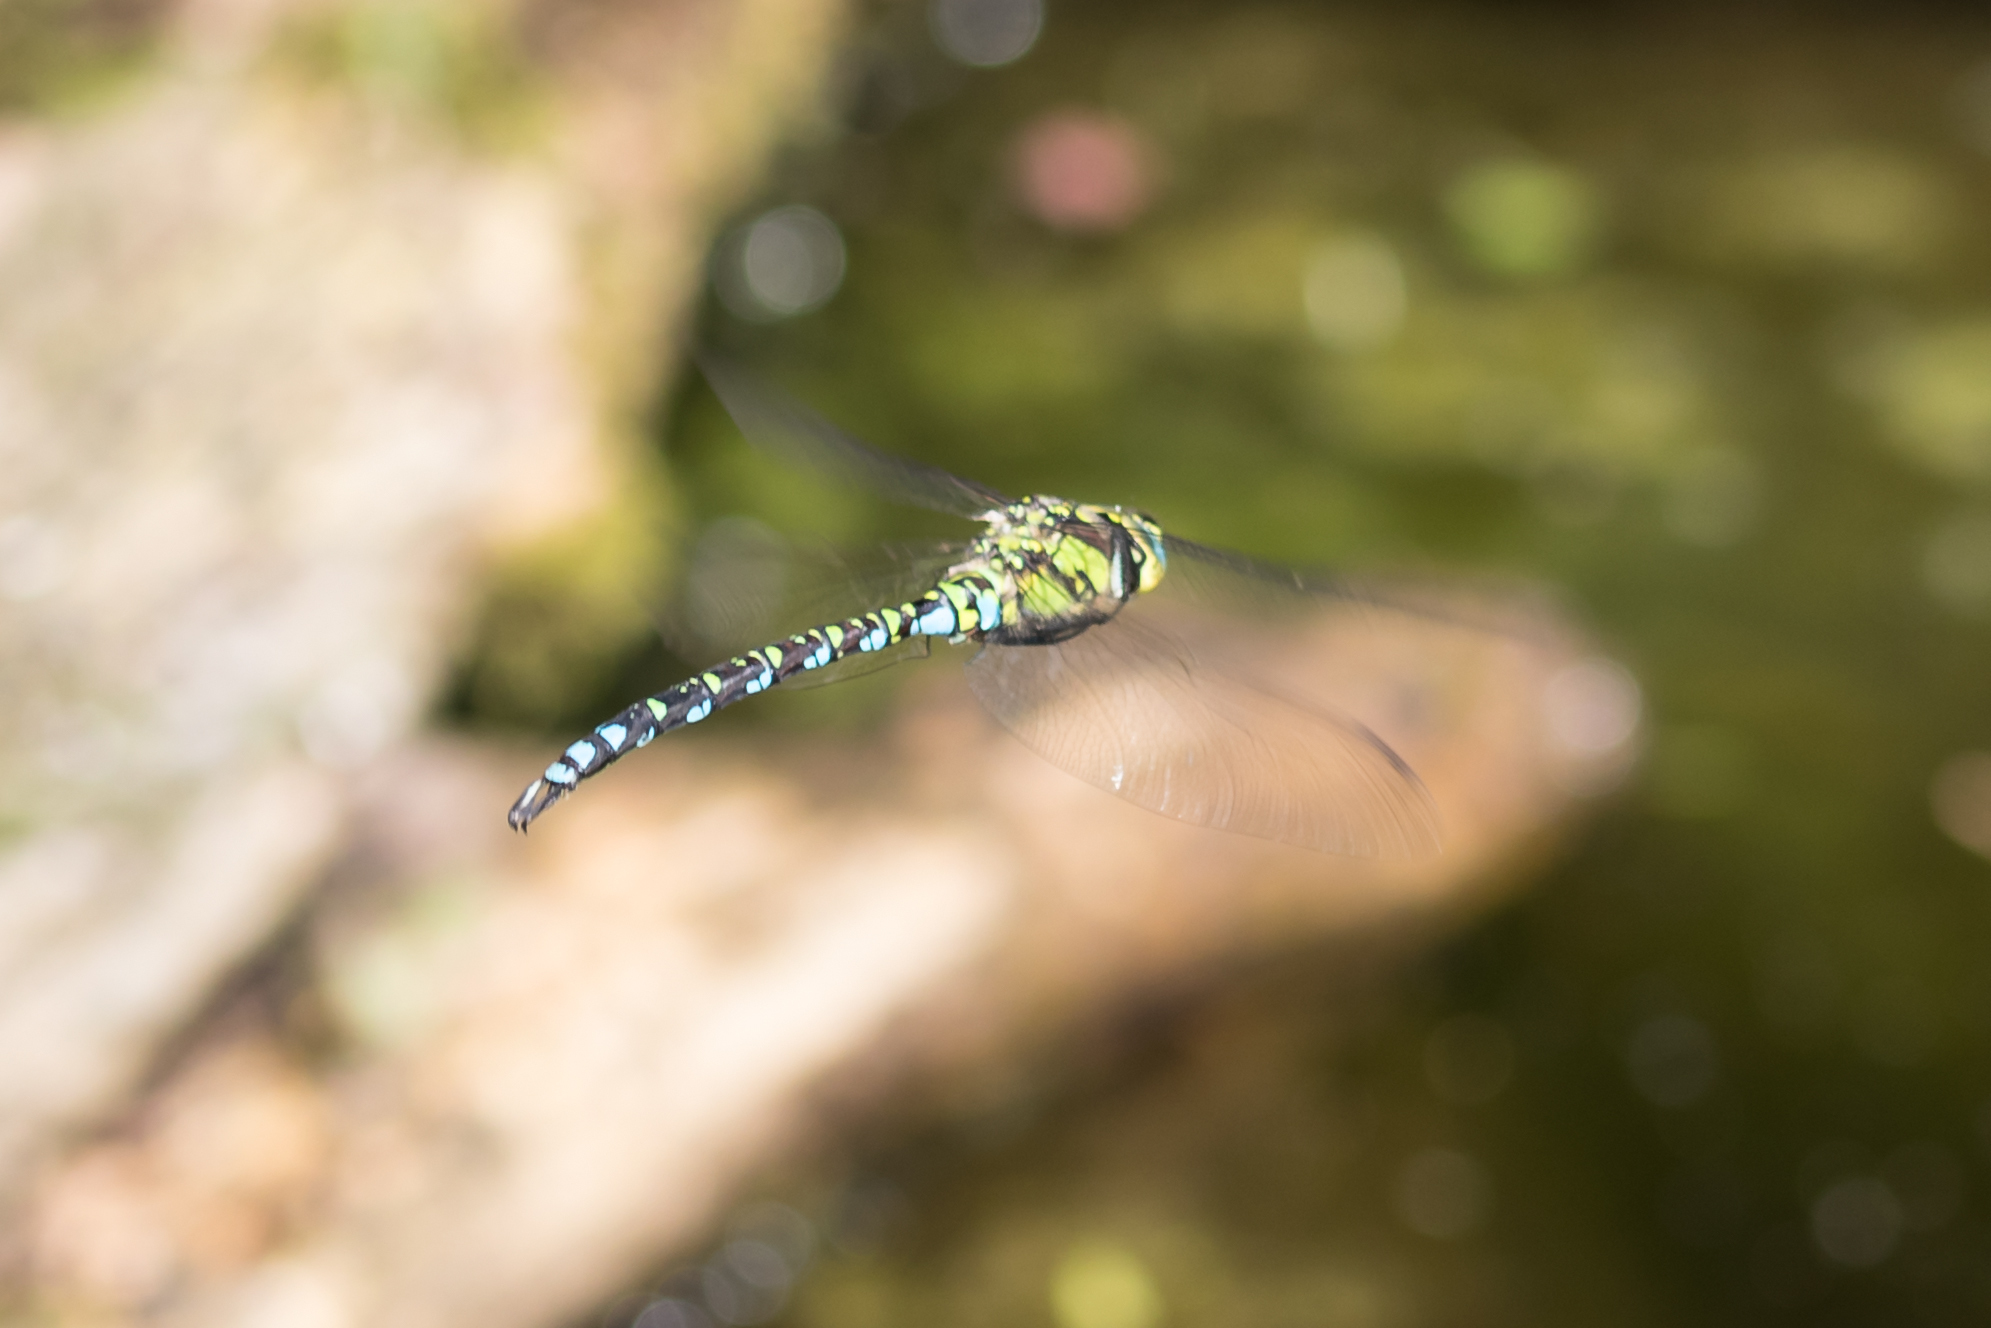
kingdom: Animalia
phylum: Arthropoda
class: Insecta
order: Odonata
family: Aeshnidae
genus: Aeshna
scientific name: Aeshna cyanea
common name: Southern hawker
